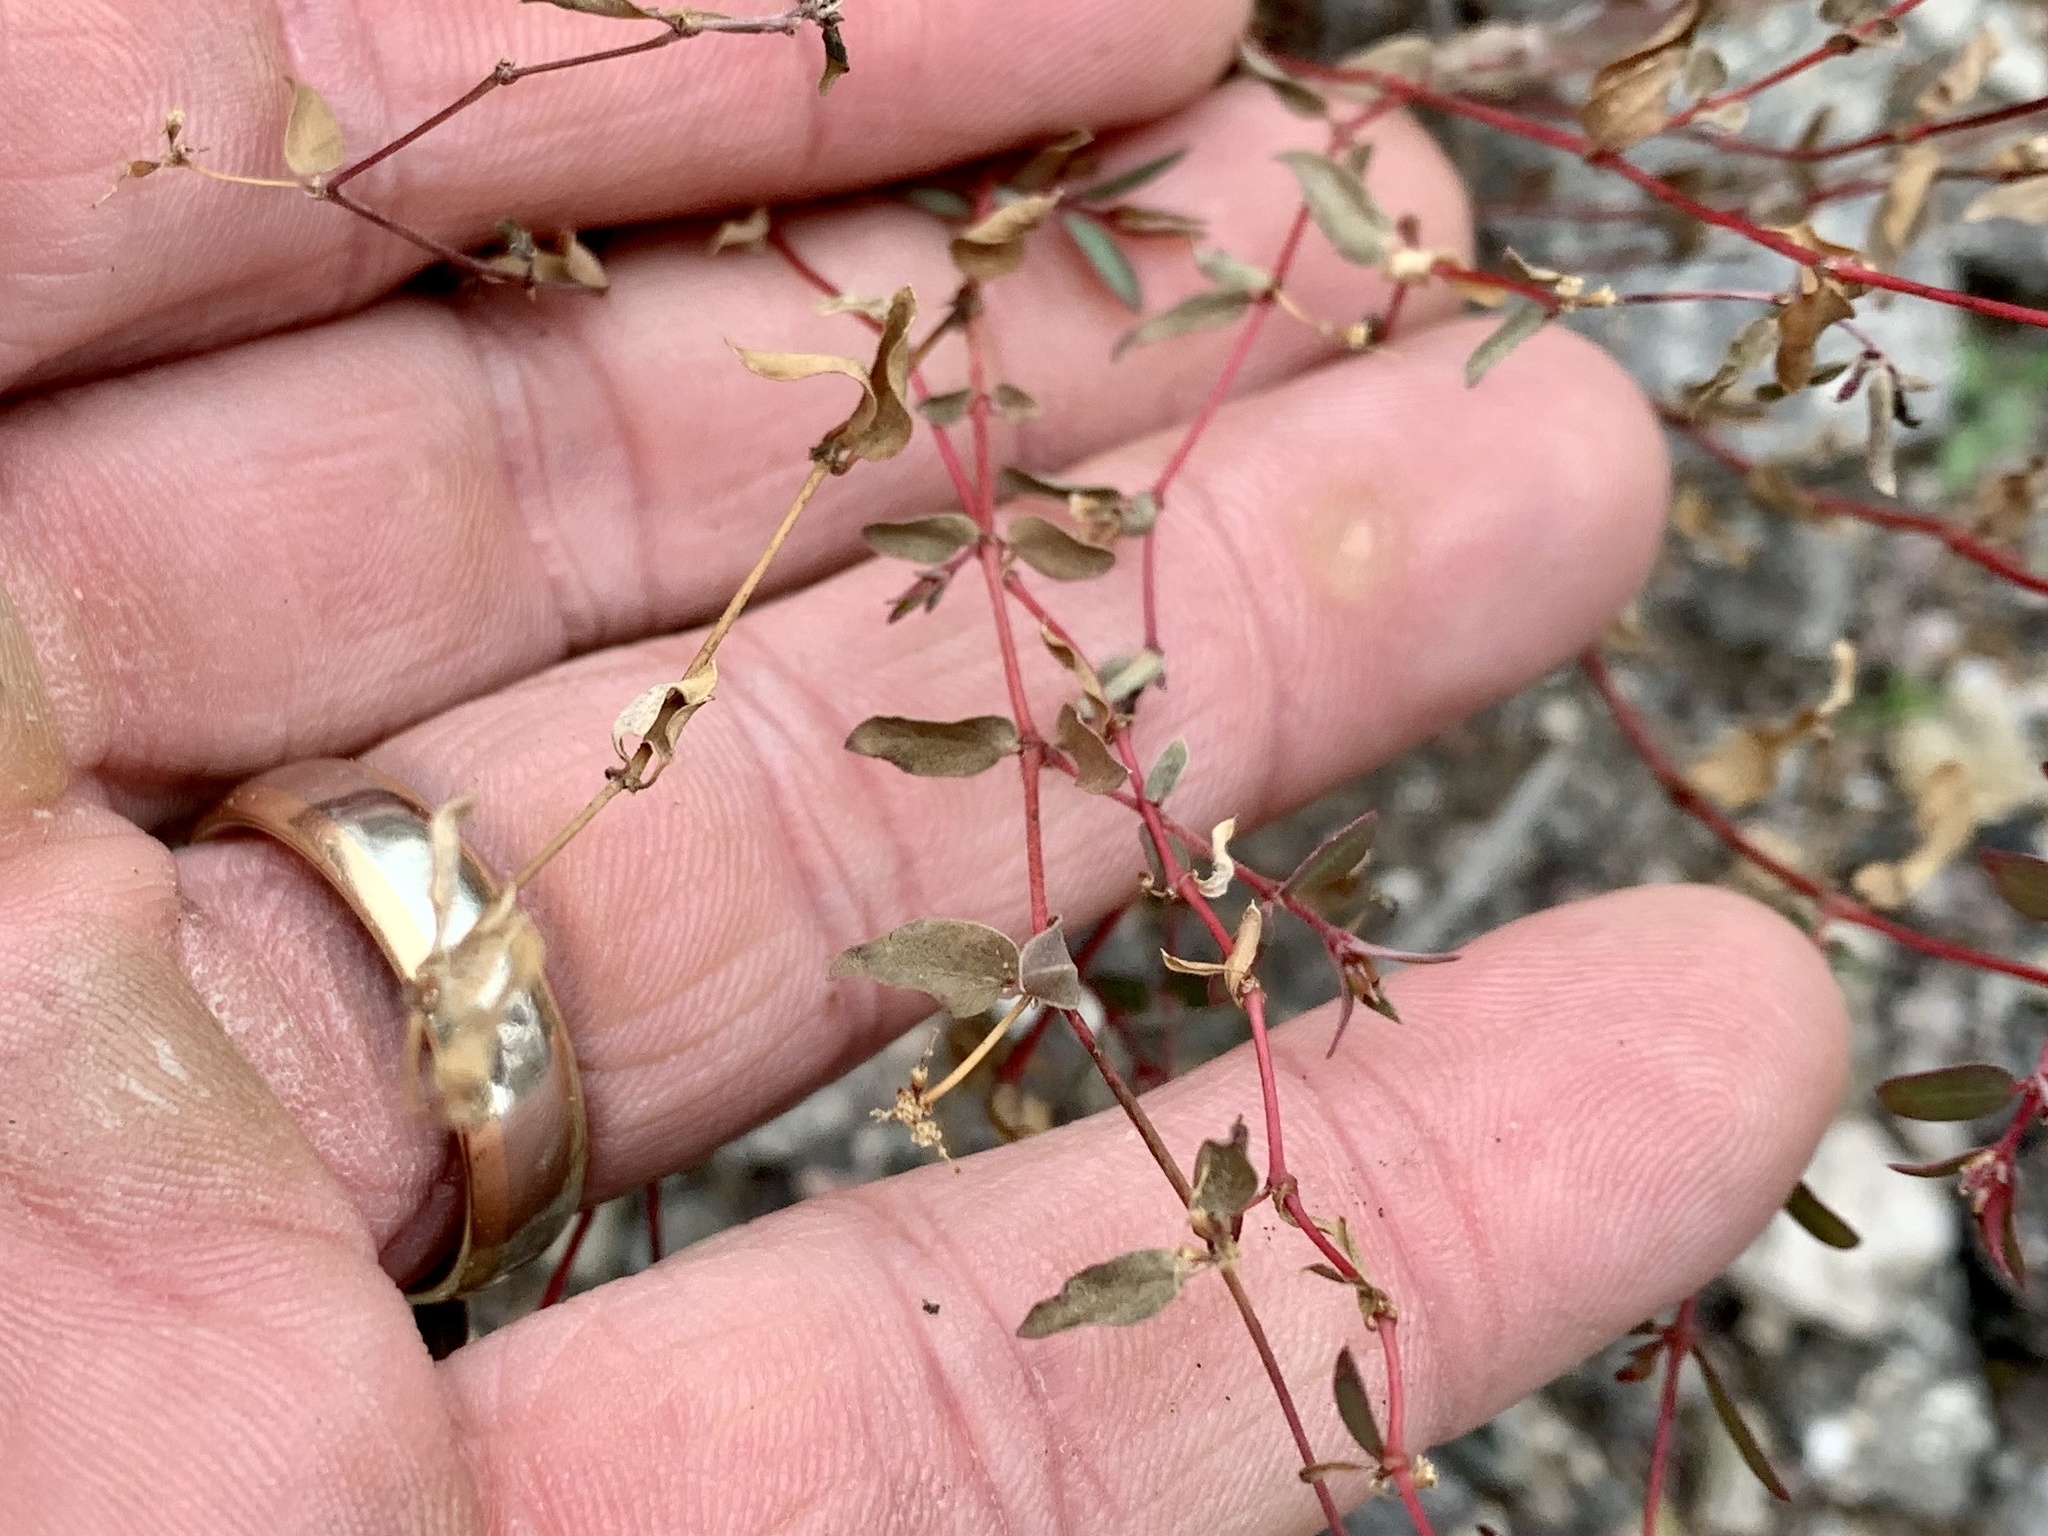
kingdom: Plantae
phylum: Tracheophyta
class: Magnoliopsida
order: Malpighiales
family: Euphorbiaceae
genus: Euphorbia
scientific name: Euphorbia capitellata
